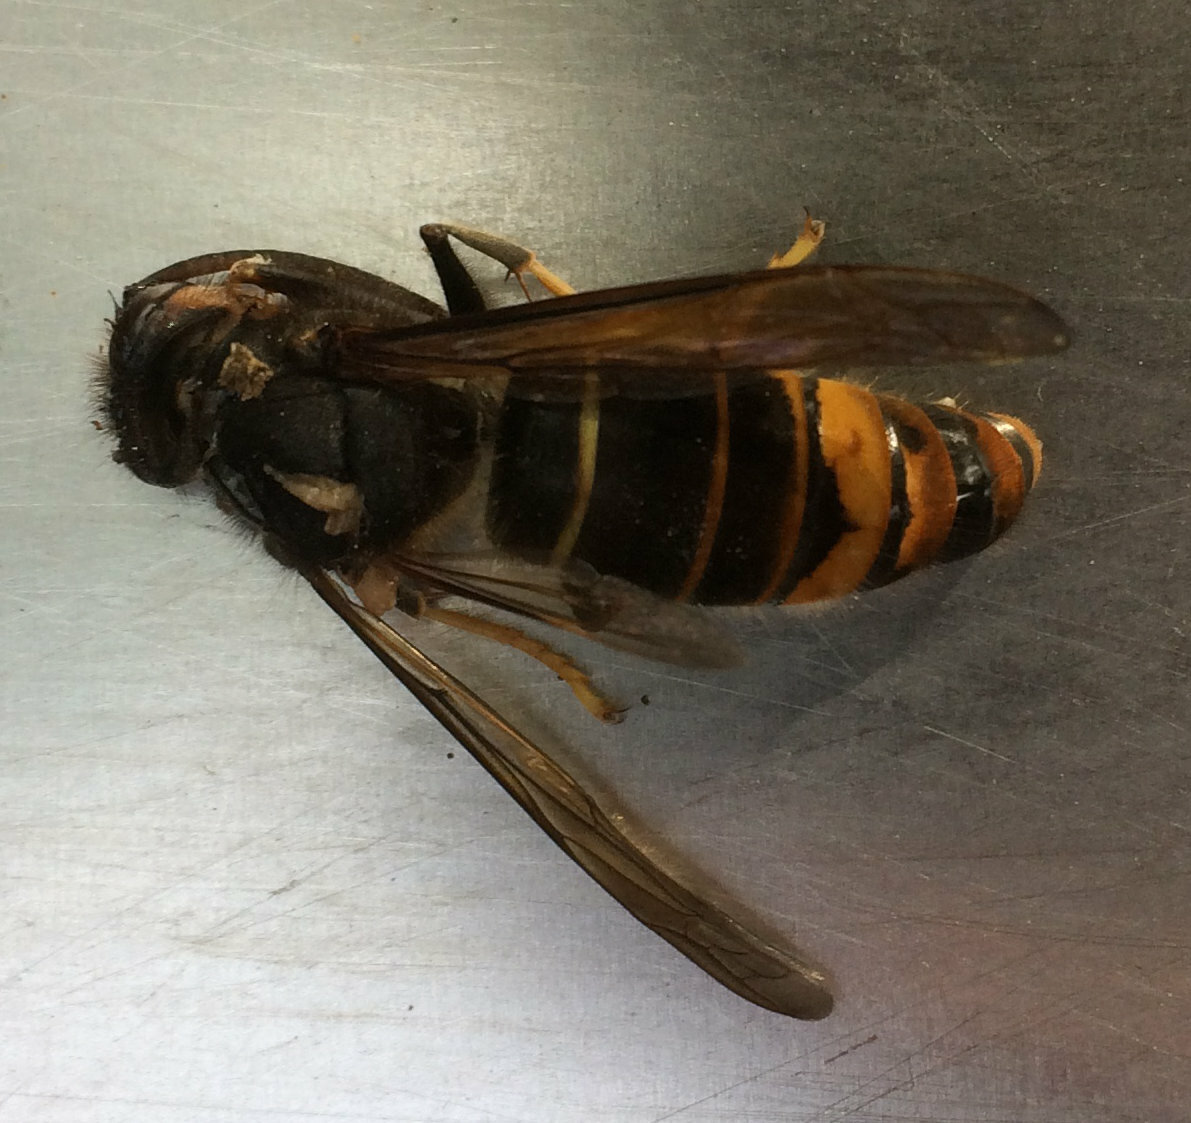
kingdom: Animalia
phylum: Arthropoda
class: Insecta
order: Hymenoptera
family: Vespidae
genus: Vespa
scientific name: Vespa velutina
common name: Asian hornet
